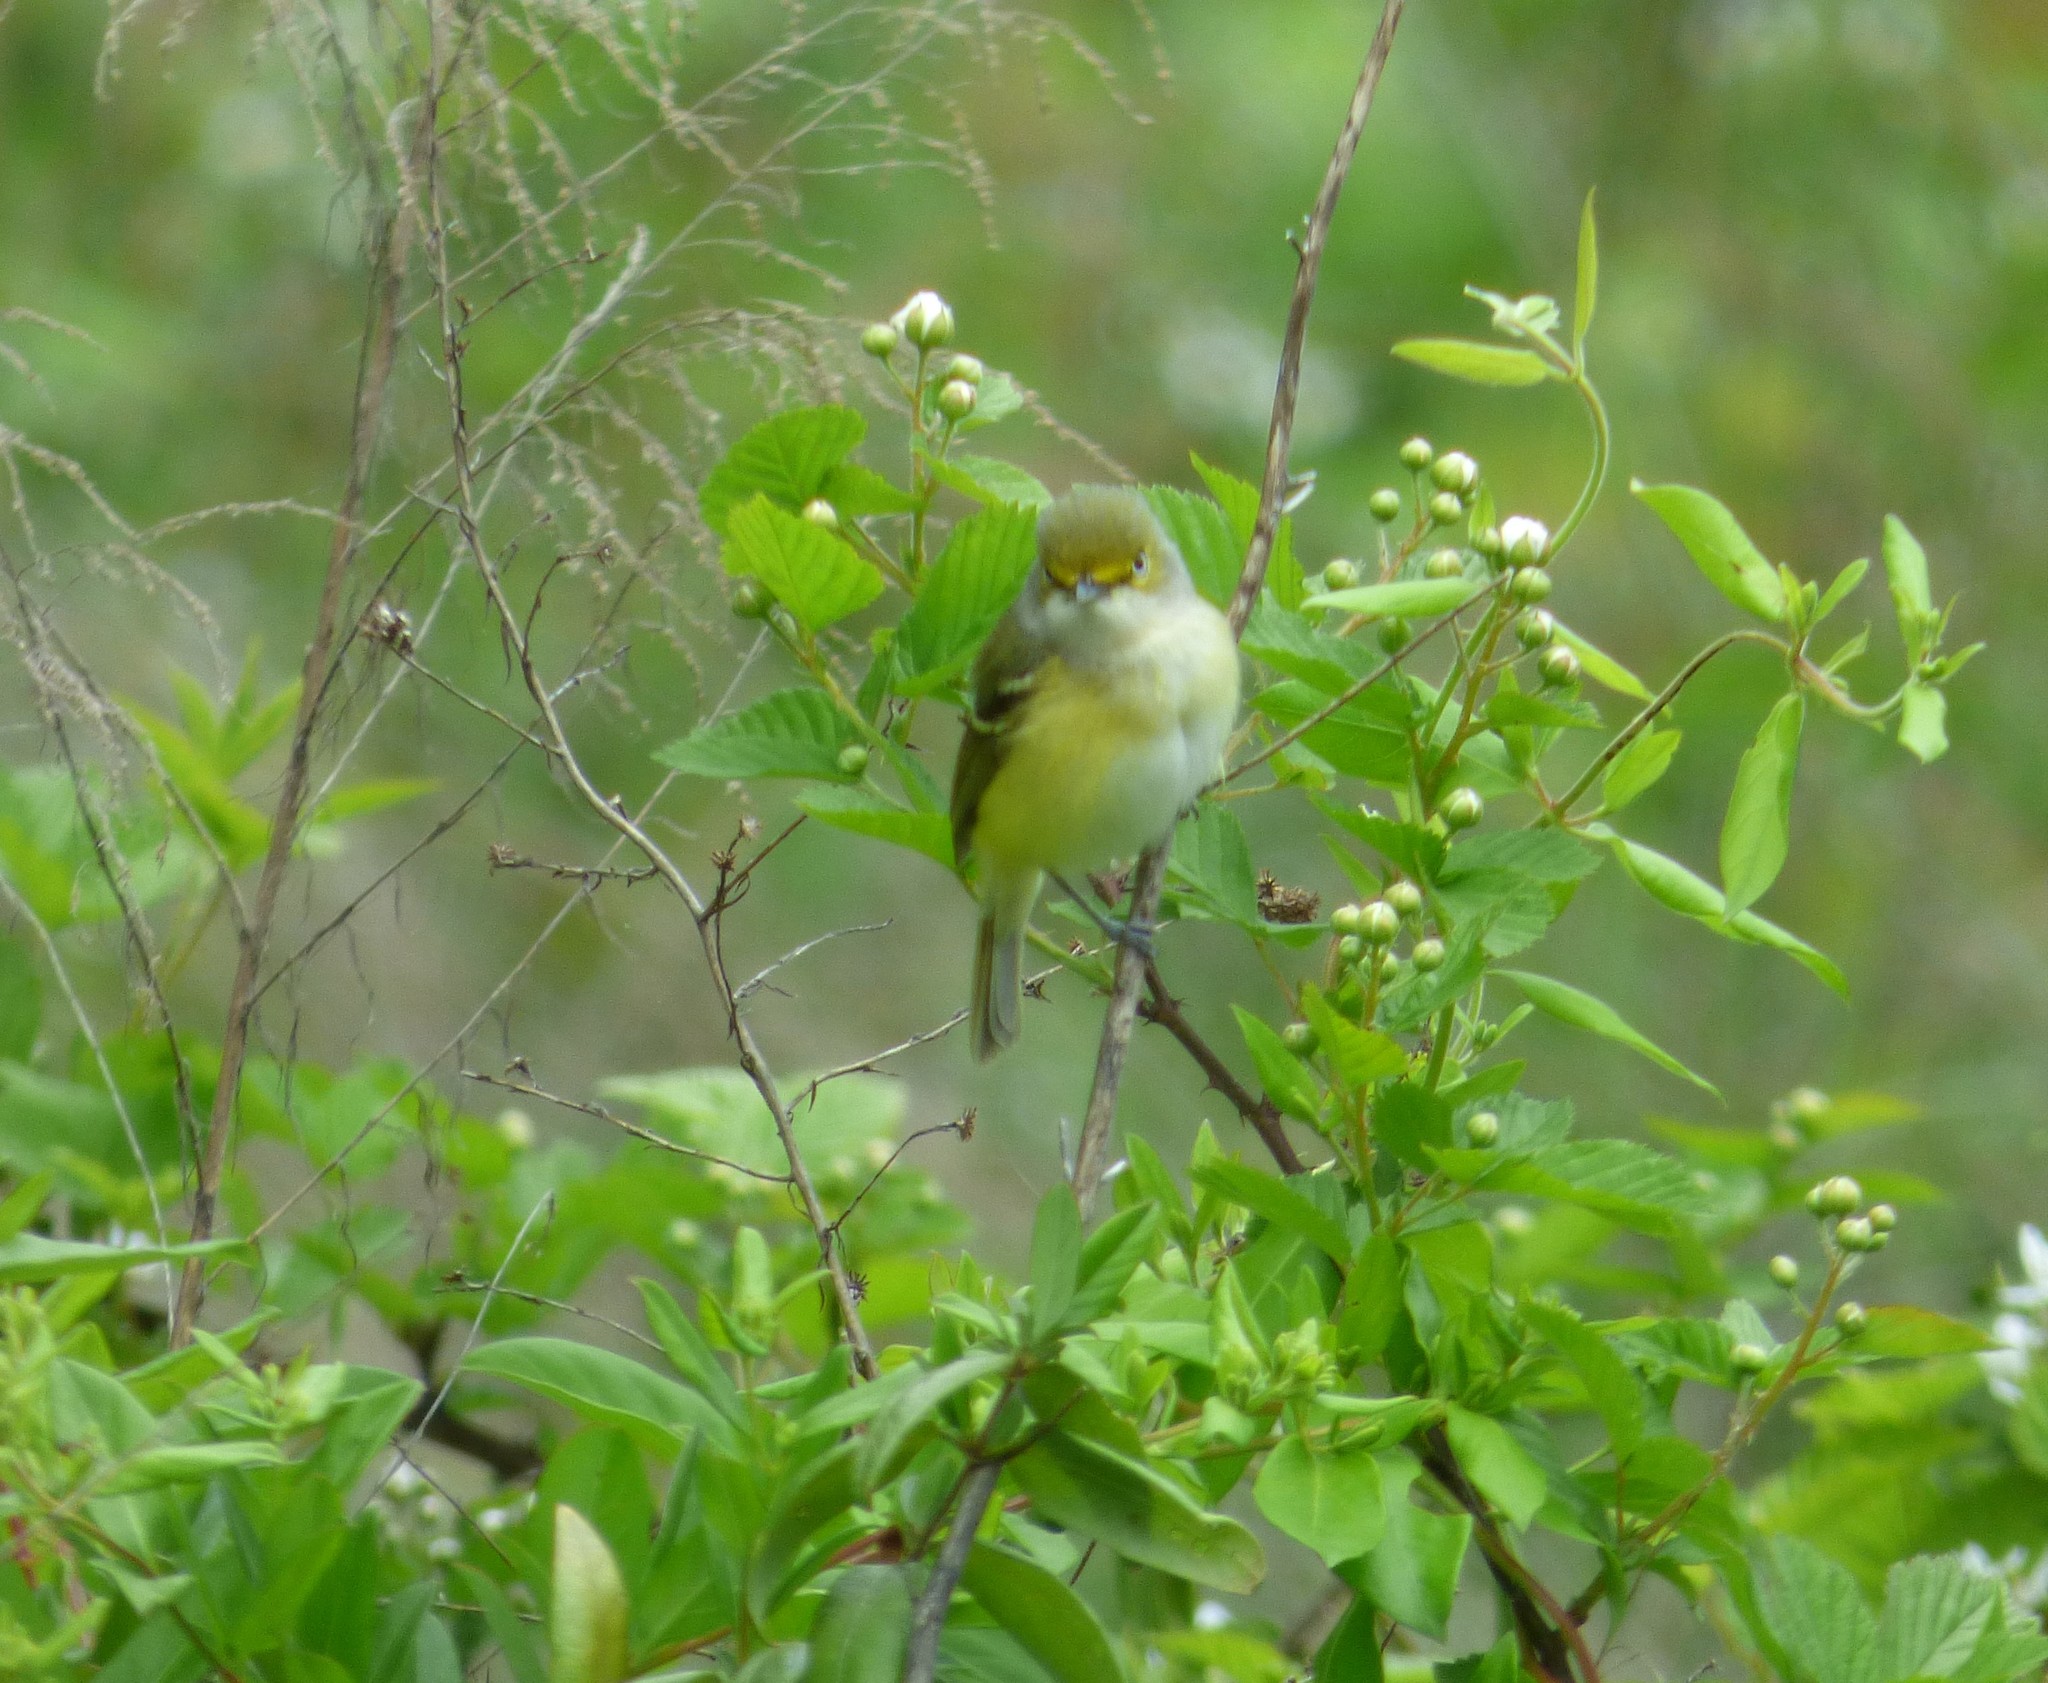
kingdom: Animalia
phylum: Chordata
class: Aves
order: Passeriformes
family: Vireonidae
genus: Vireo
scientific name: Vireo griseus
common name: White-eyed vireo
